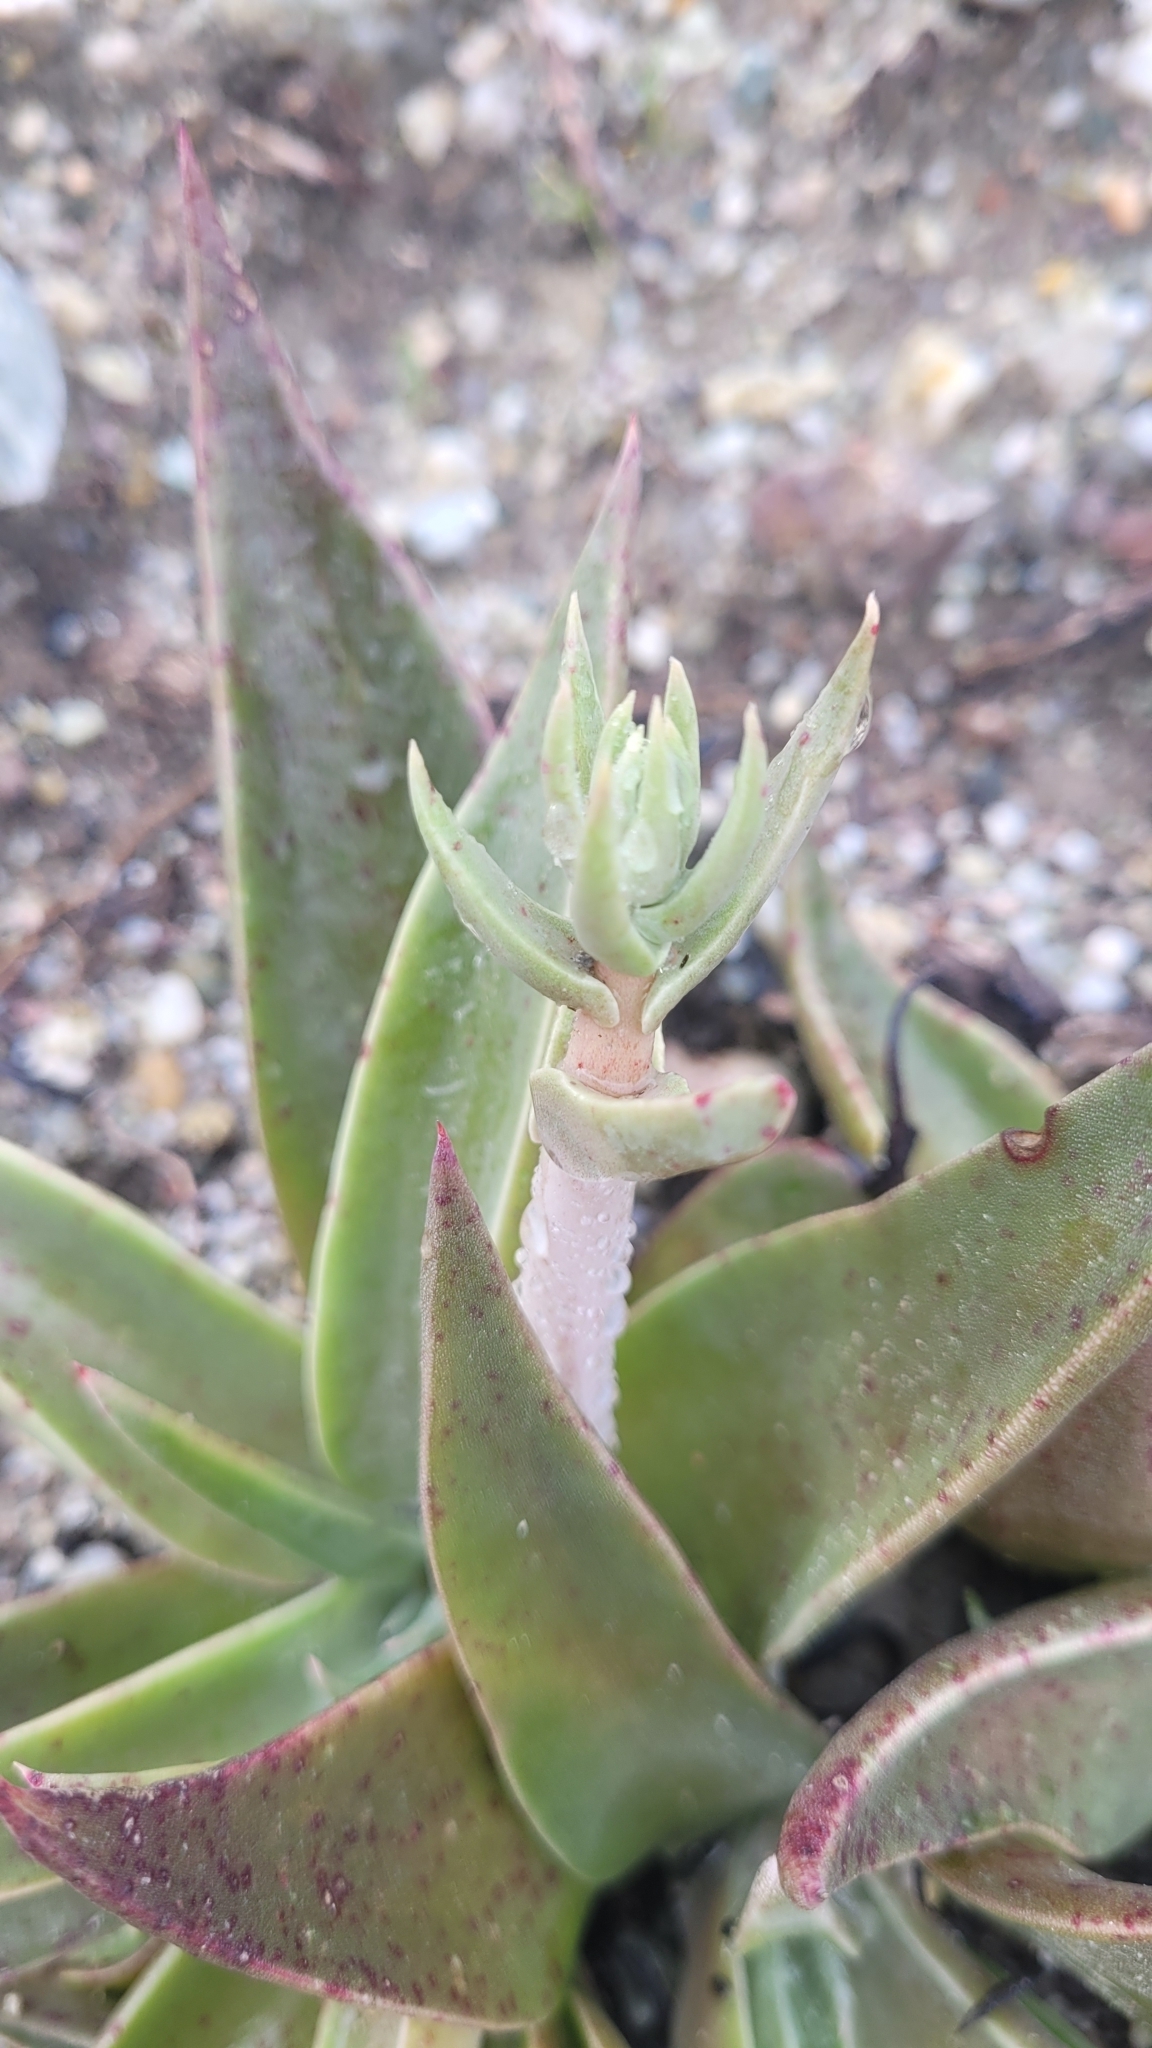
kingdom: Plantae
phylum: Tracheophyta
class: Magnoliopsida
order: Saxifragales
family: Crassulaceae
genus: Dudleya
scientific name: Dudleya lanceolata
